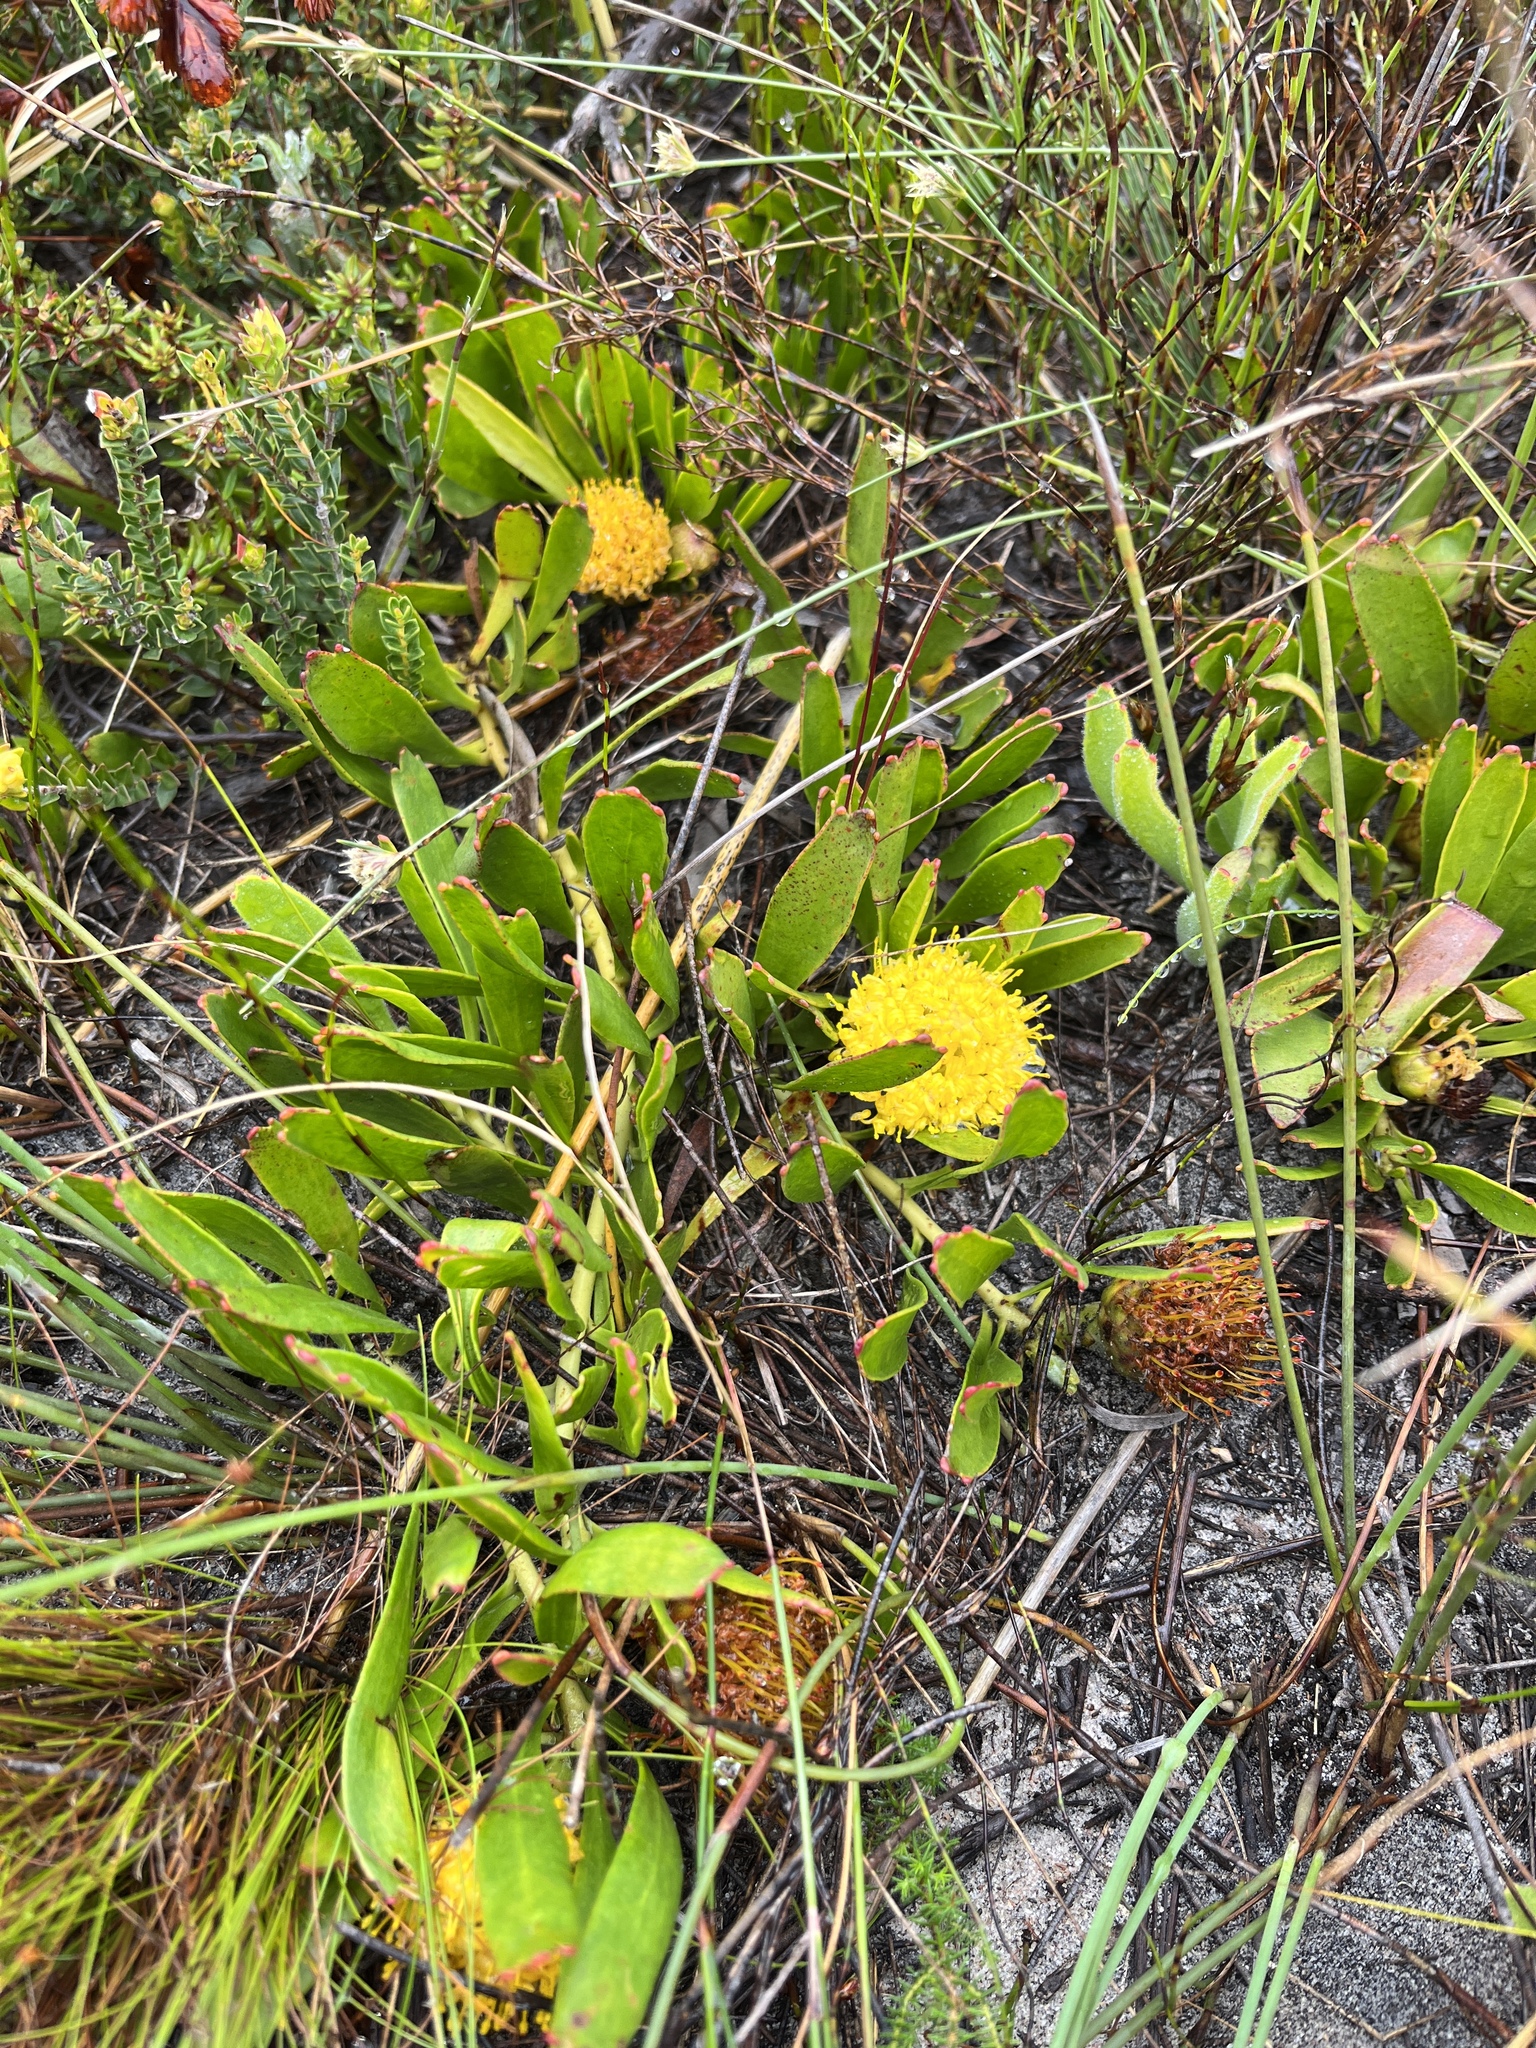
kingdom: Plantae
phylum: Tracheophyta
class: Magnoliopsida
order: Proteales
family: Proteaceae
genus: Leucospermum
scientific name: Leucospermum hypophyllocarpodendron
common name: Snakestem pincushion
